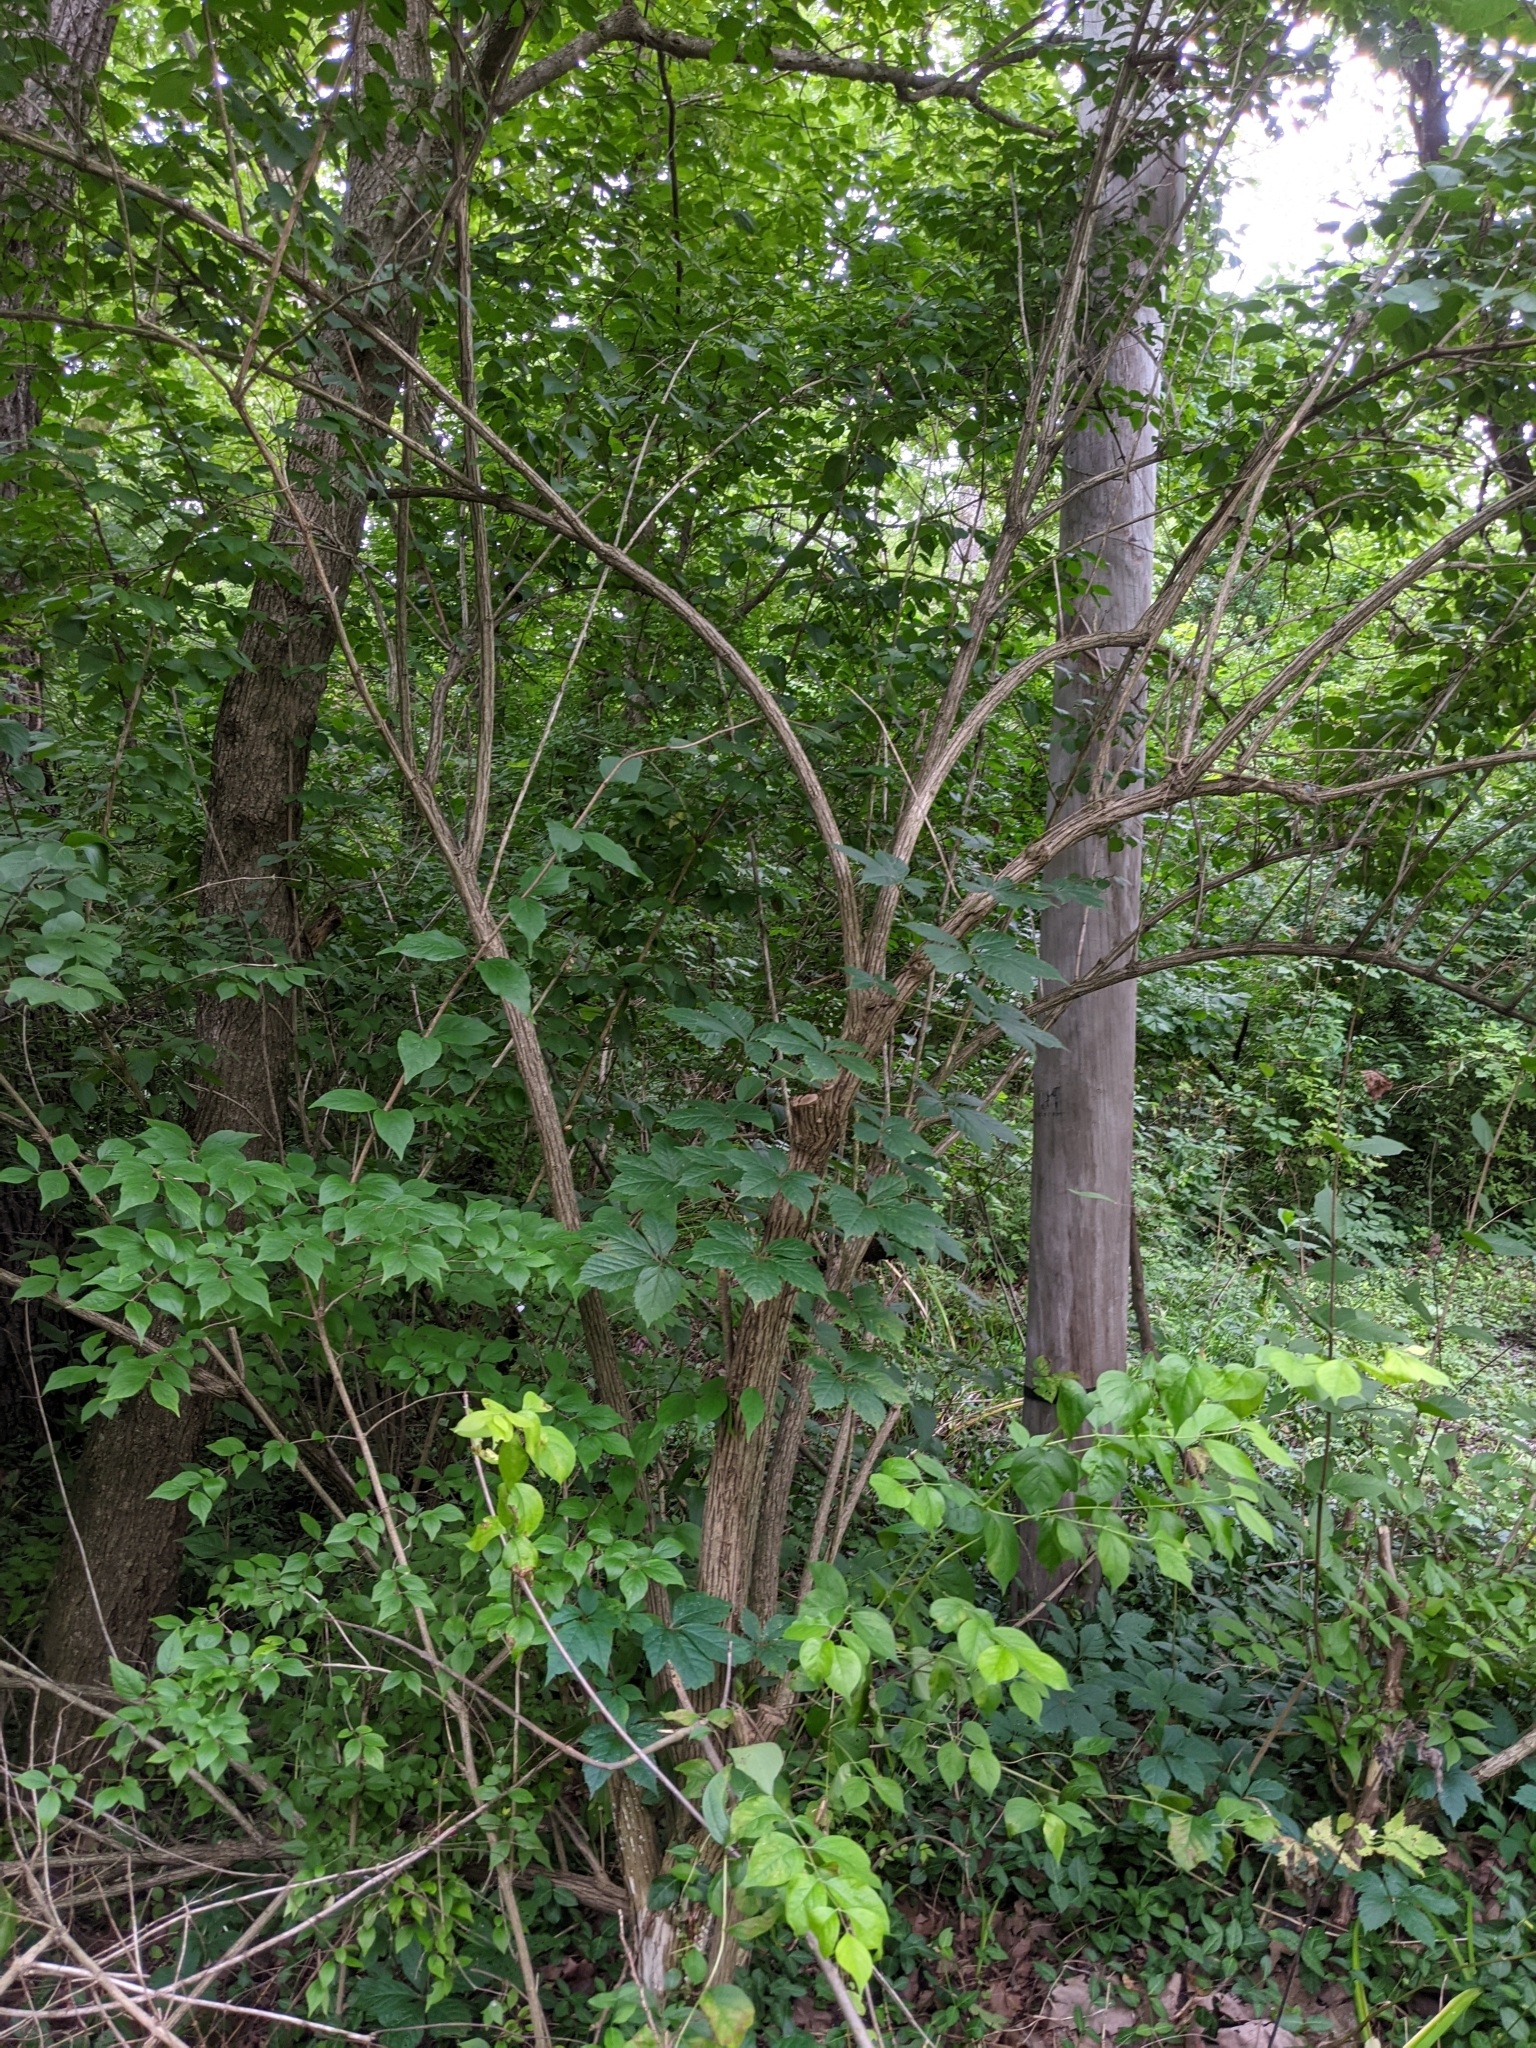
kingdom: Plantae
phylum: Tracheophyta
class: Magnoliopsida
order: Dipsacales
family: Caprifoliaceae
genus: Lonicera
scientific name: Lonicera maackii
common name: Amur honeysuckle
